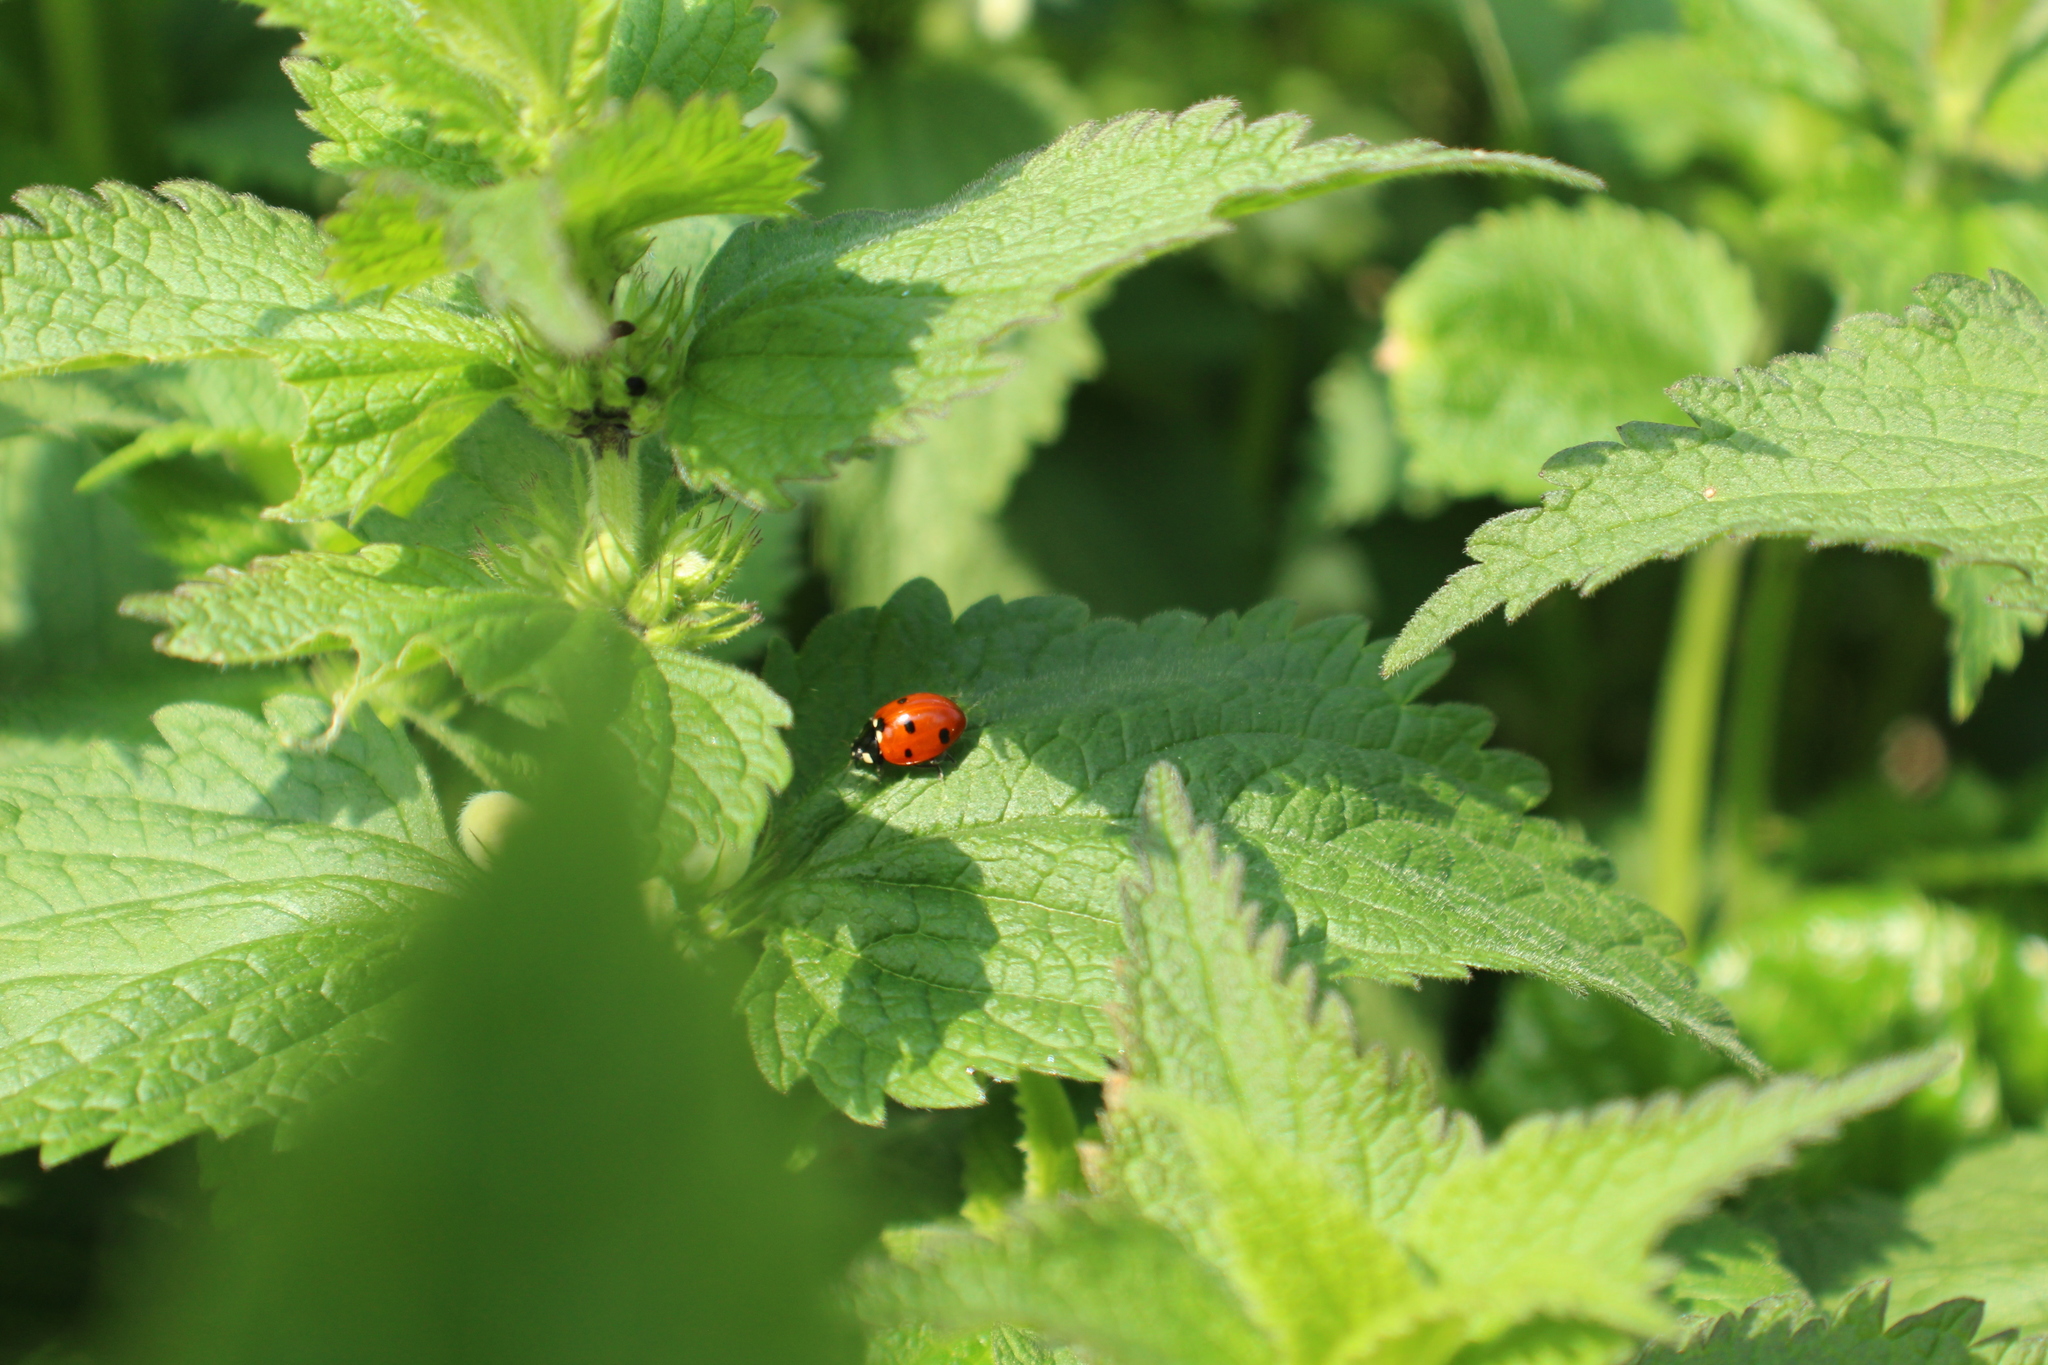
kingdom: Animalia
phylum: Arthropoda
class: Insecta
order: Coleoptera
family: Coccinellidae
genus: Coccinella
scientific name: Coccinella septempunctata
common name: Sevenspotted lady beetle
